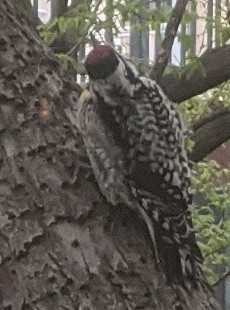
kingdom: Animalia
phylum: Chordata
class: Aves
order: Piciformes
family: Picidae
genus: Sphyrapicus
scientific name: Sphyrapicus varius
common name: Yellow-bellied sapsucker
